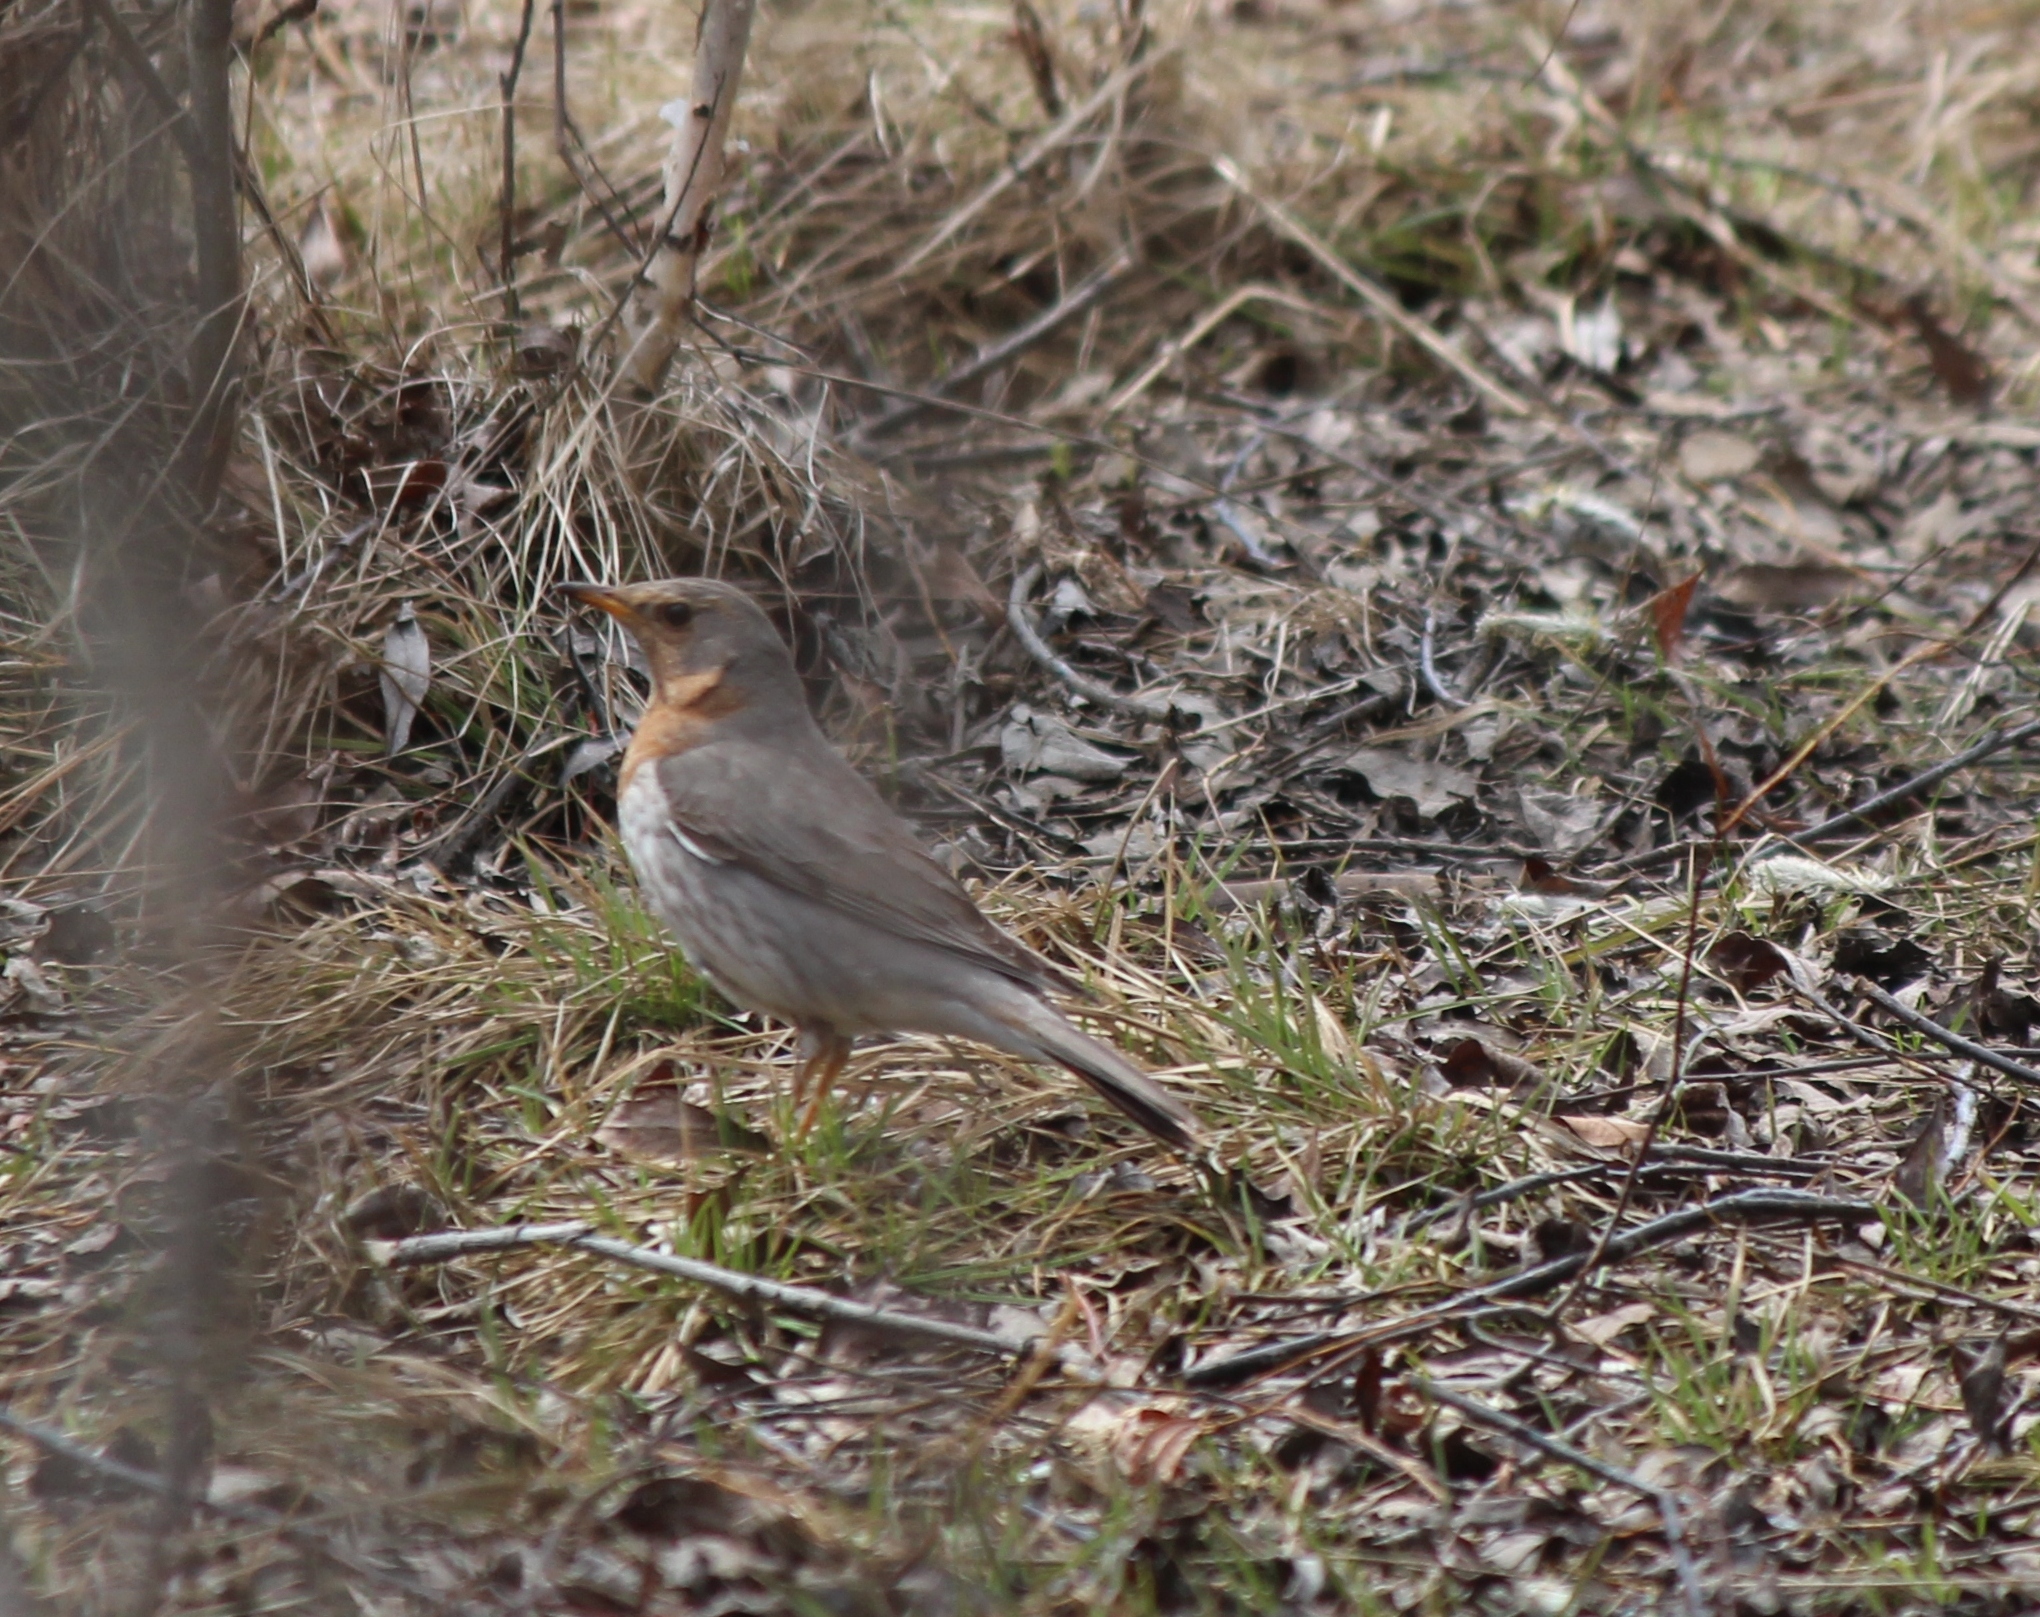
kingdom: Animalia
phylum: Chordata
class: Aves
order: Passeriformes
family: Turdidae
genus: Turdus
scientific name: Turdus ruficollis
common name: Red-throated thrush
